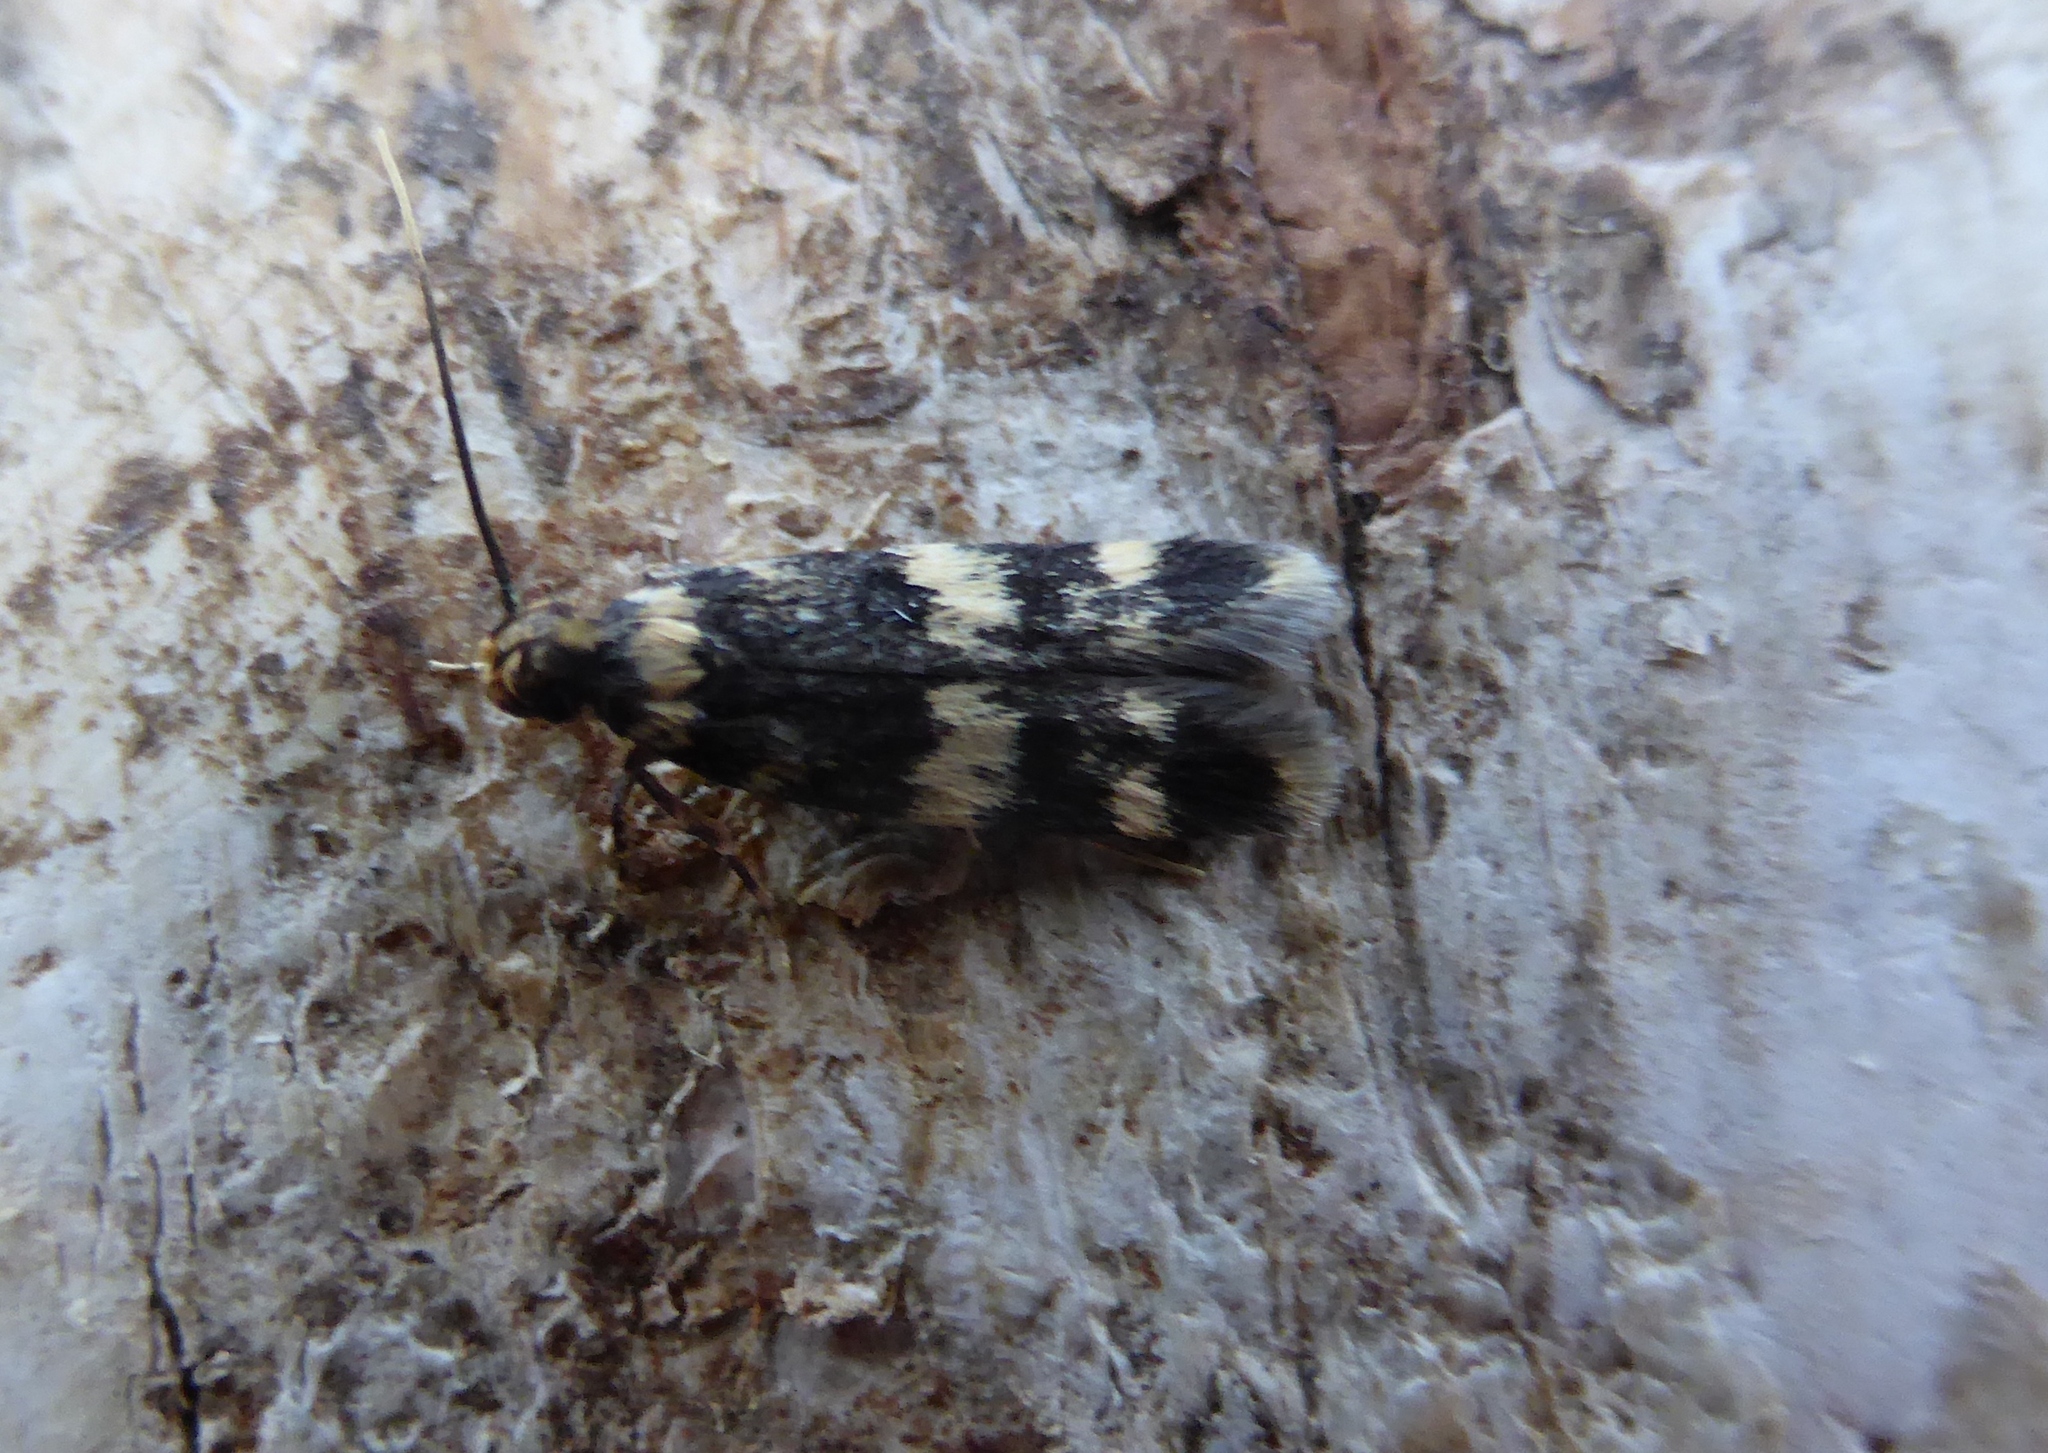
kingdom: Animalia
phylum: Arthropoda
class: Insecta
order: Lepidoptera
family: Autostichidae
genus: Oegoconia
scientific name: Oegoconia
